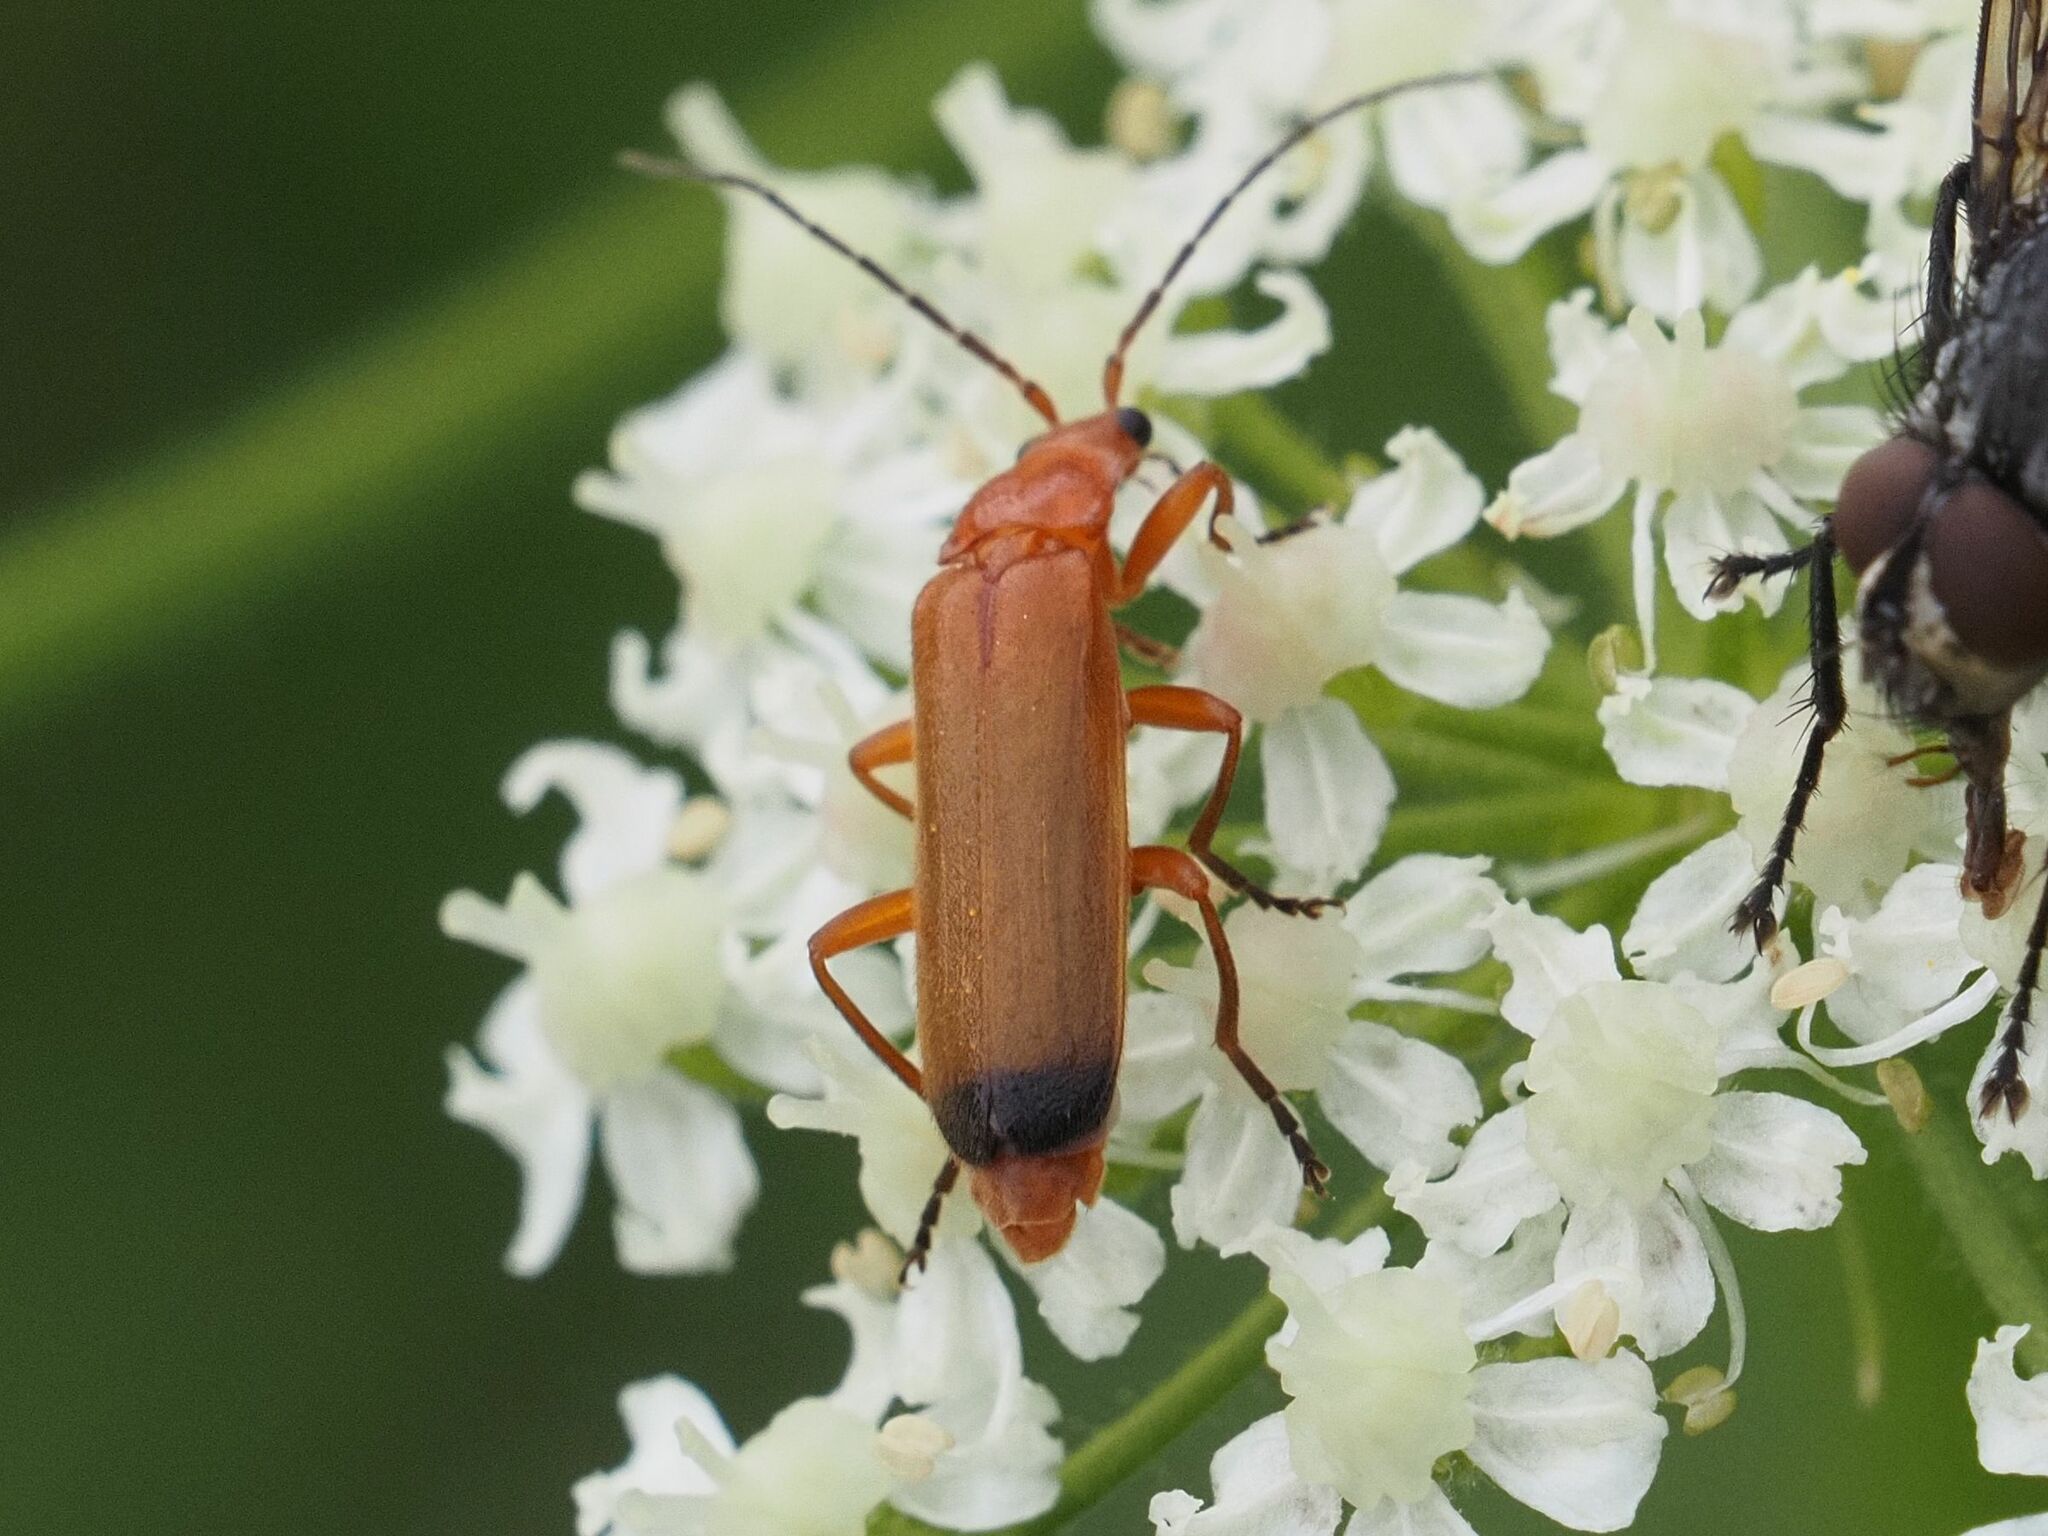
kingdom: Animalia
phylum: Arthropoda
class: Insecta
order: Coleoptera
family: Cantharidae
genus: Rhagonycha
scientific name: Rhagonycha fulva
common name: Common red soldier beetle
